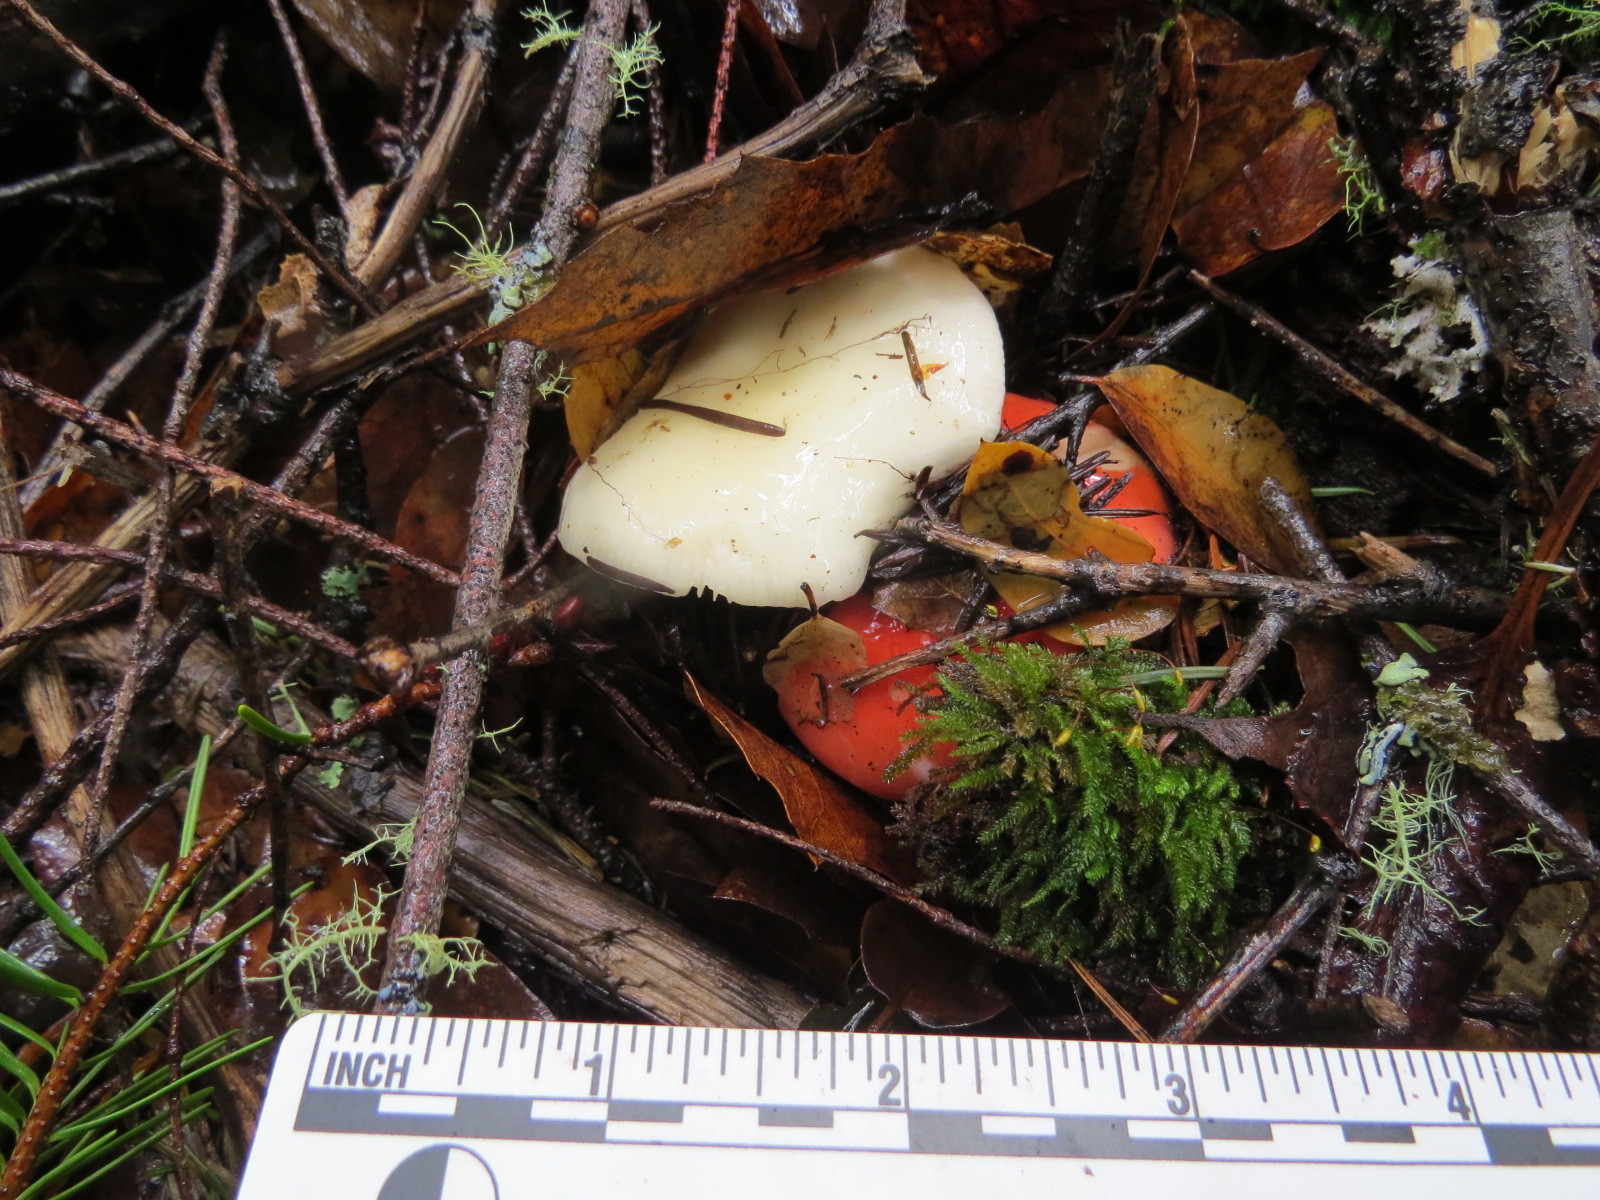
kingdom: Fungi
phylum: Basidiomycota
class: Agaricomycetes
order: Russulales
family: Russulaceae
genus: Russula
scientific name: Russula cremoricolor
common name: Winter russula
